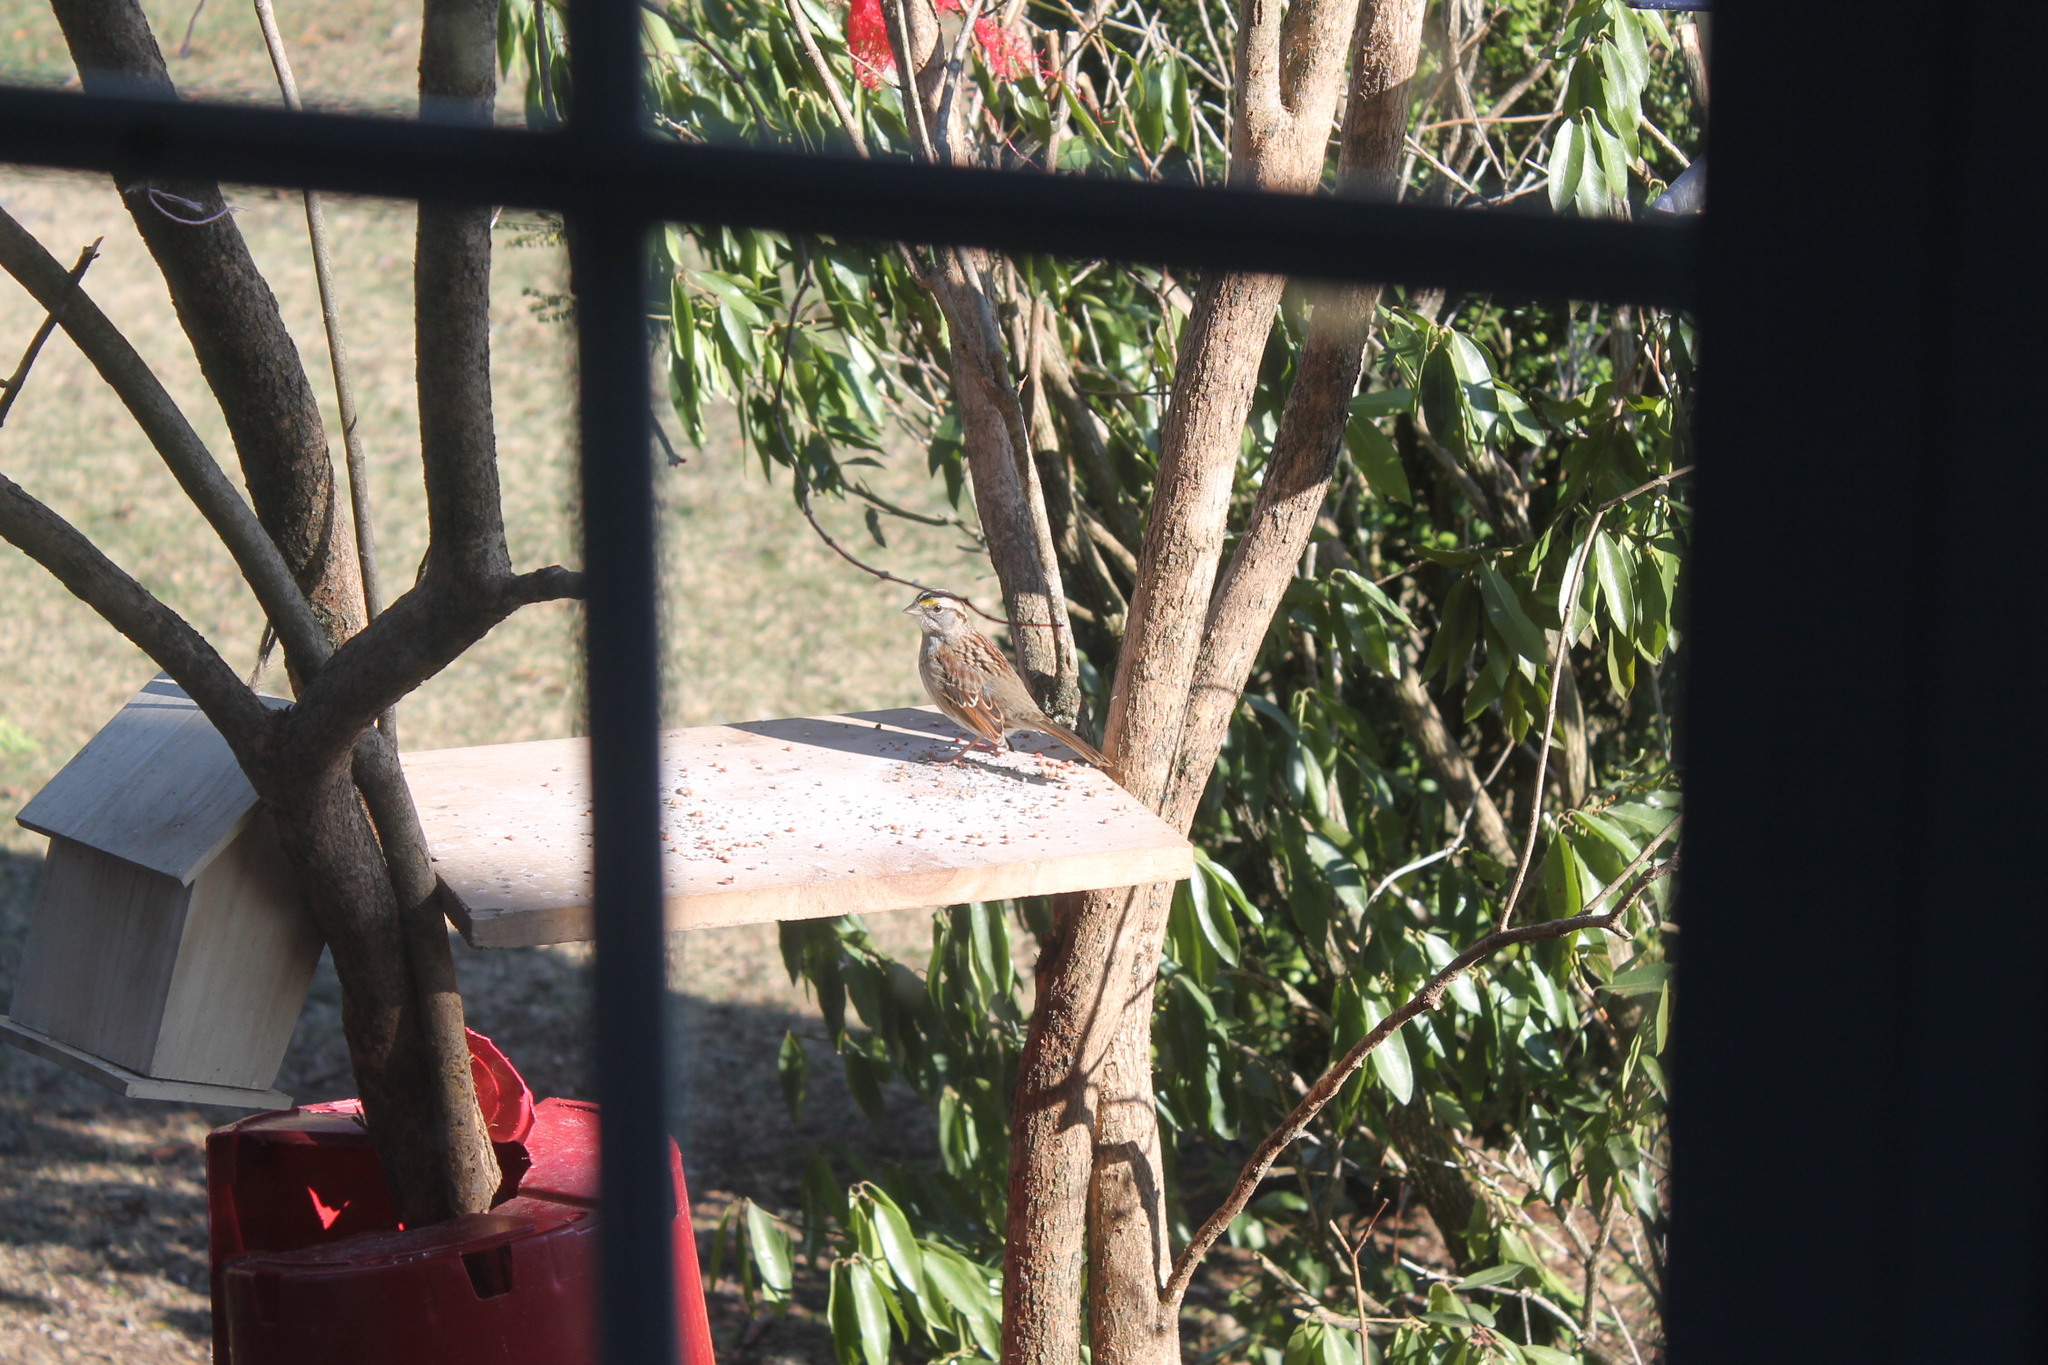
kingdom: Animalia
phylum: Chordata
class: Aves
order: Passeriformes
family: Passerellidae
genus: Zonotrichia
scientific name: Zonotrichia albicollis
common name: White-throated sparrow
